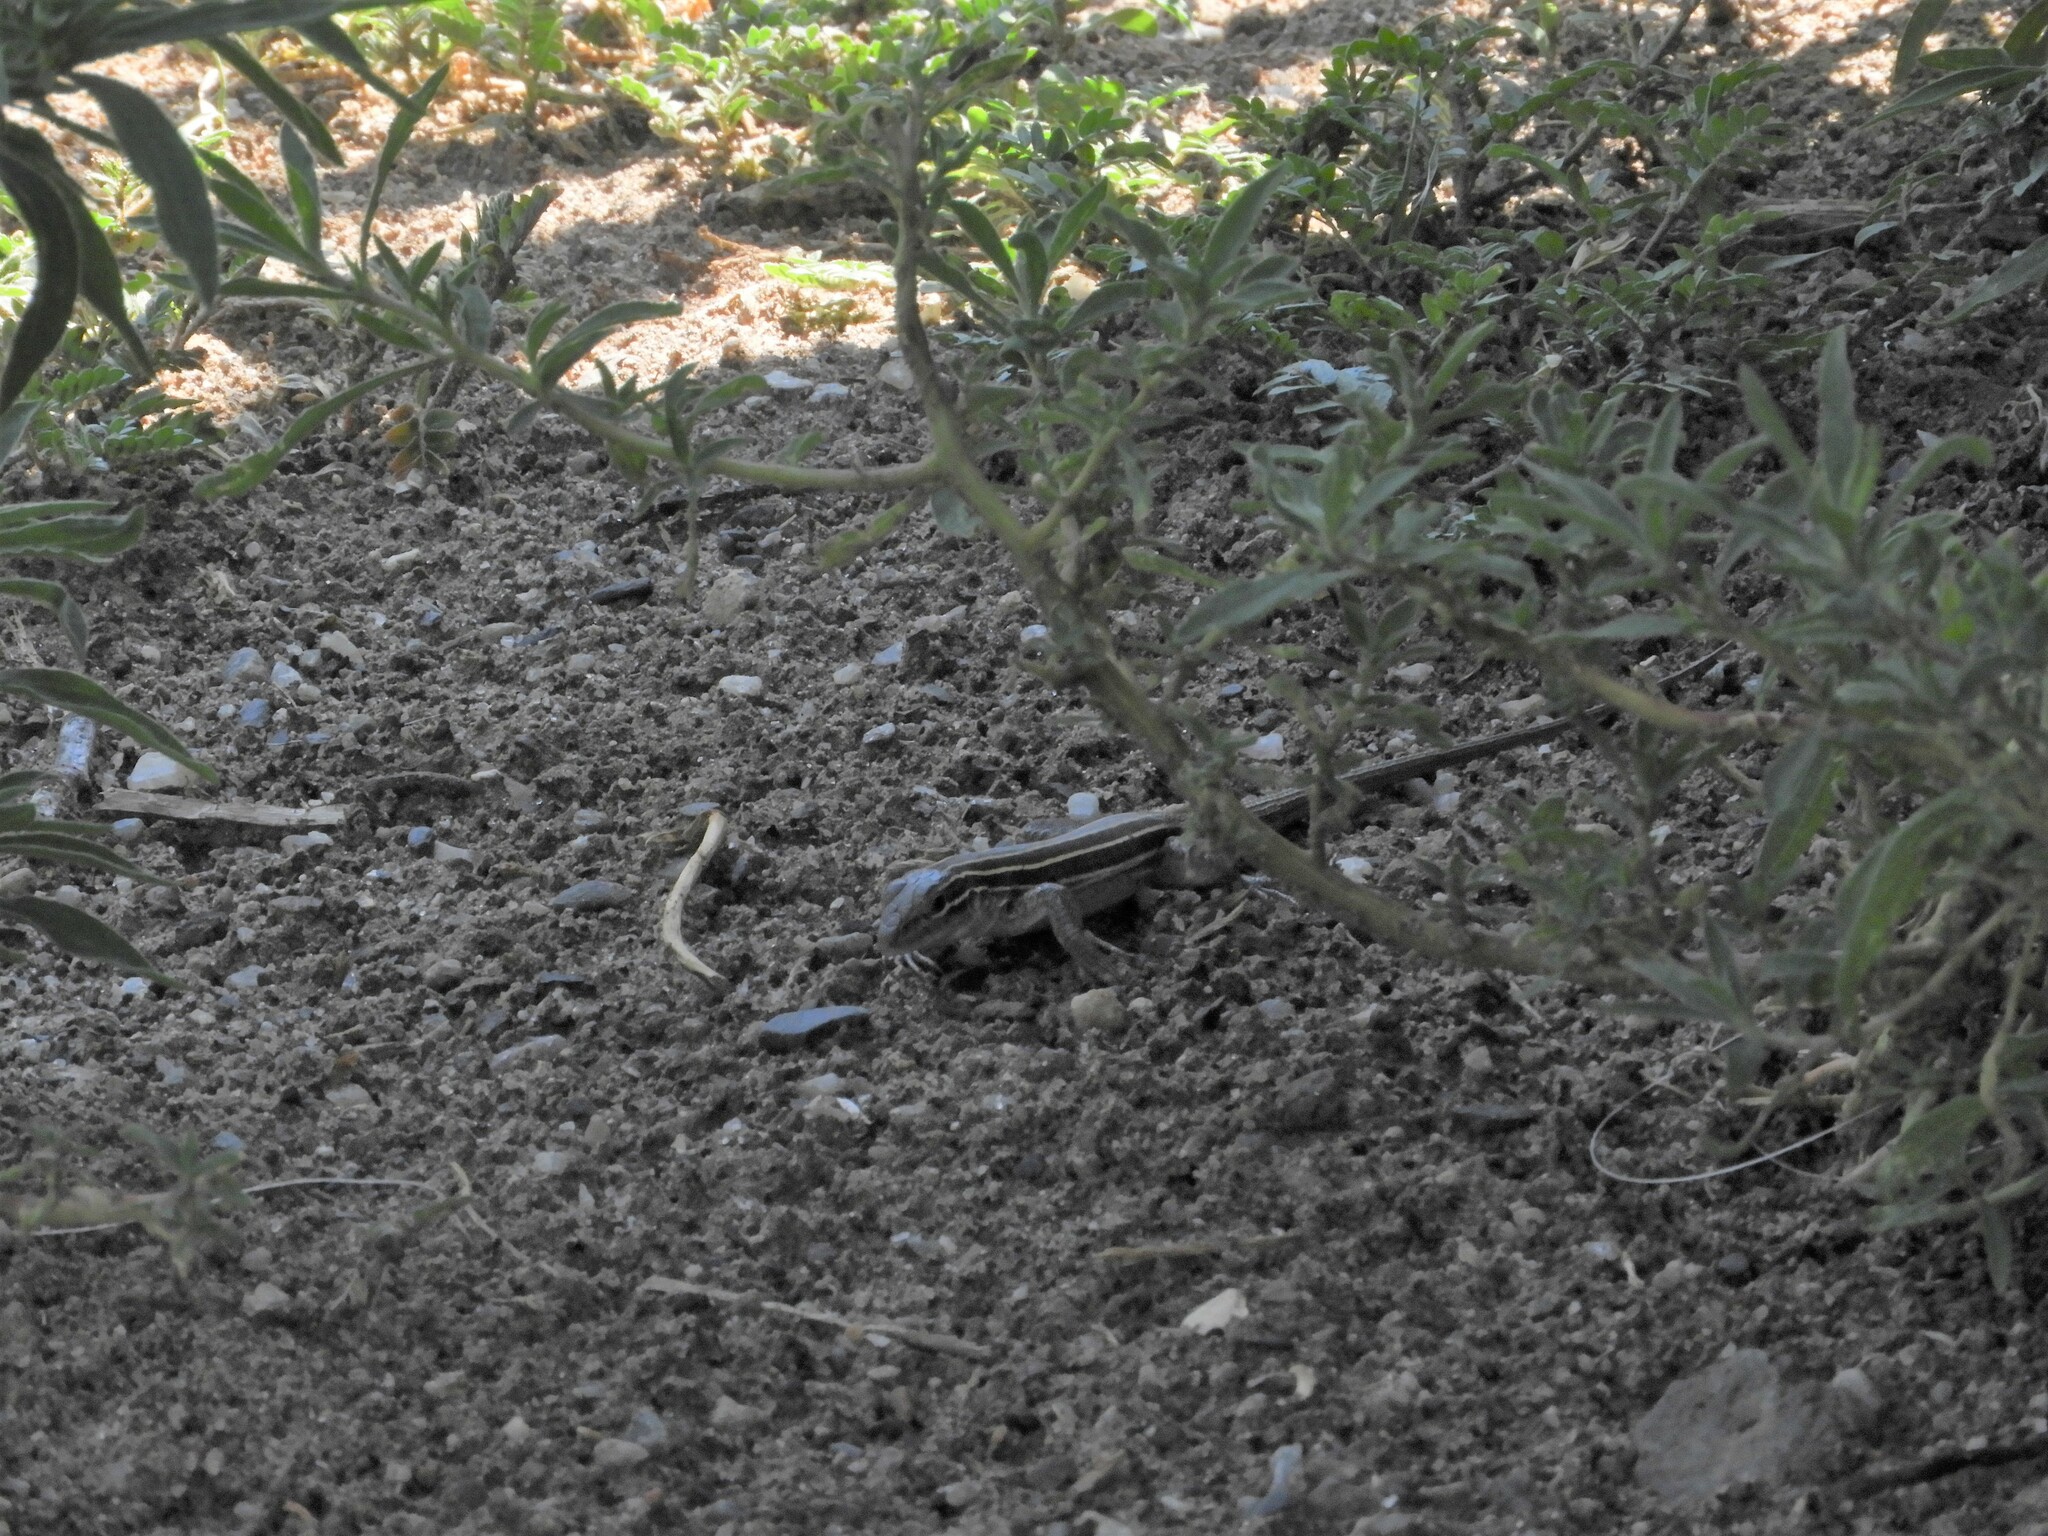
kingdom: Animalia
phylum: Chordata
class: Squamata
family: Teiidae
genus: Aspidoscelis
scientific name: Aspidoscelis velox
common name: Plateau striped whiptail
